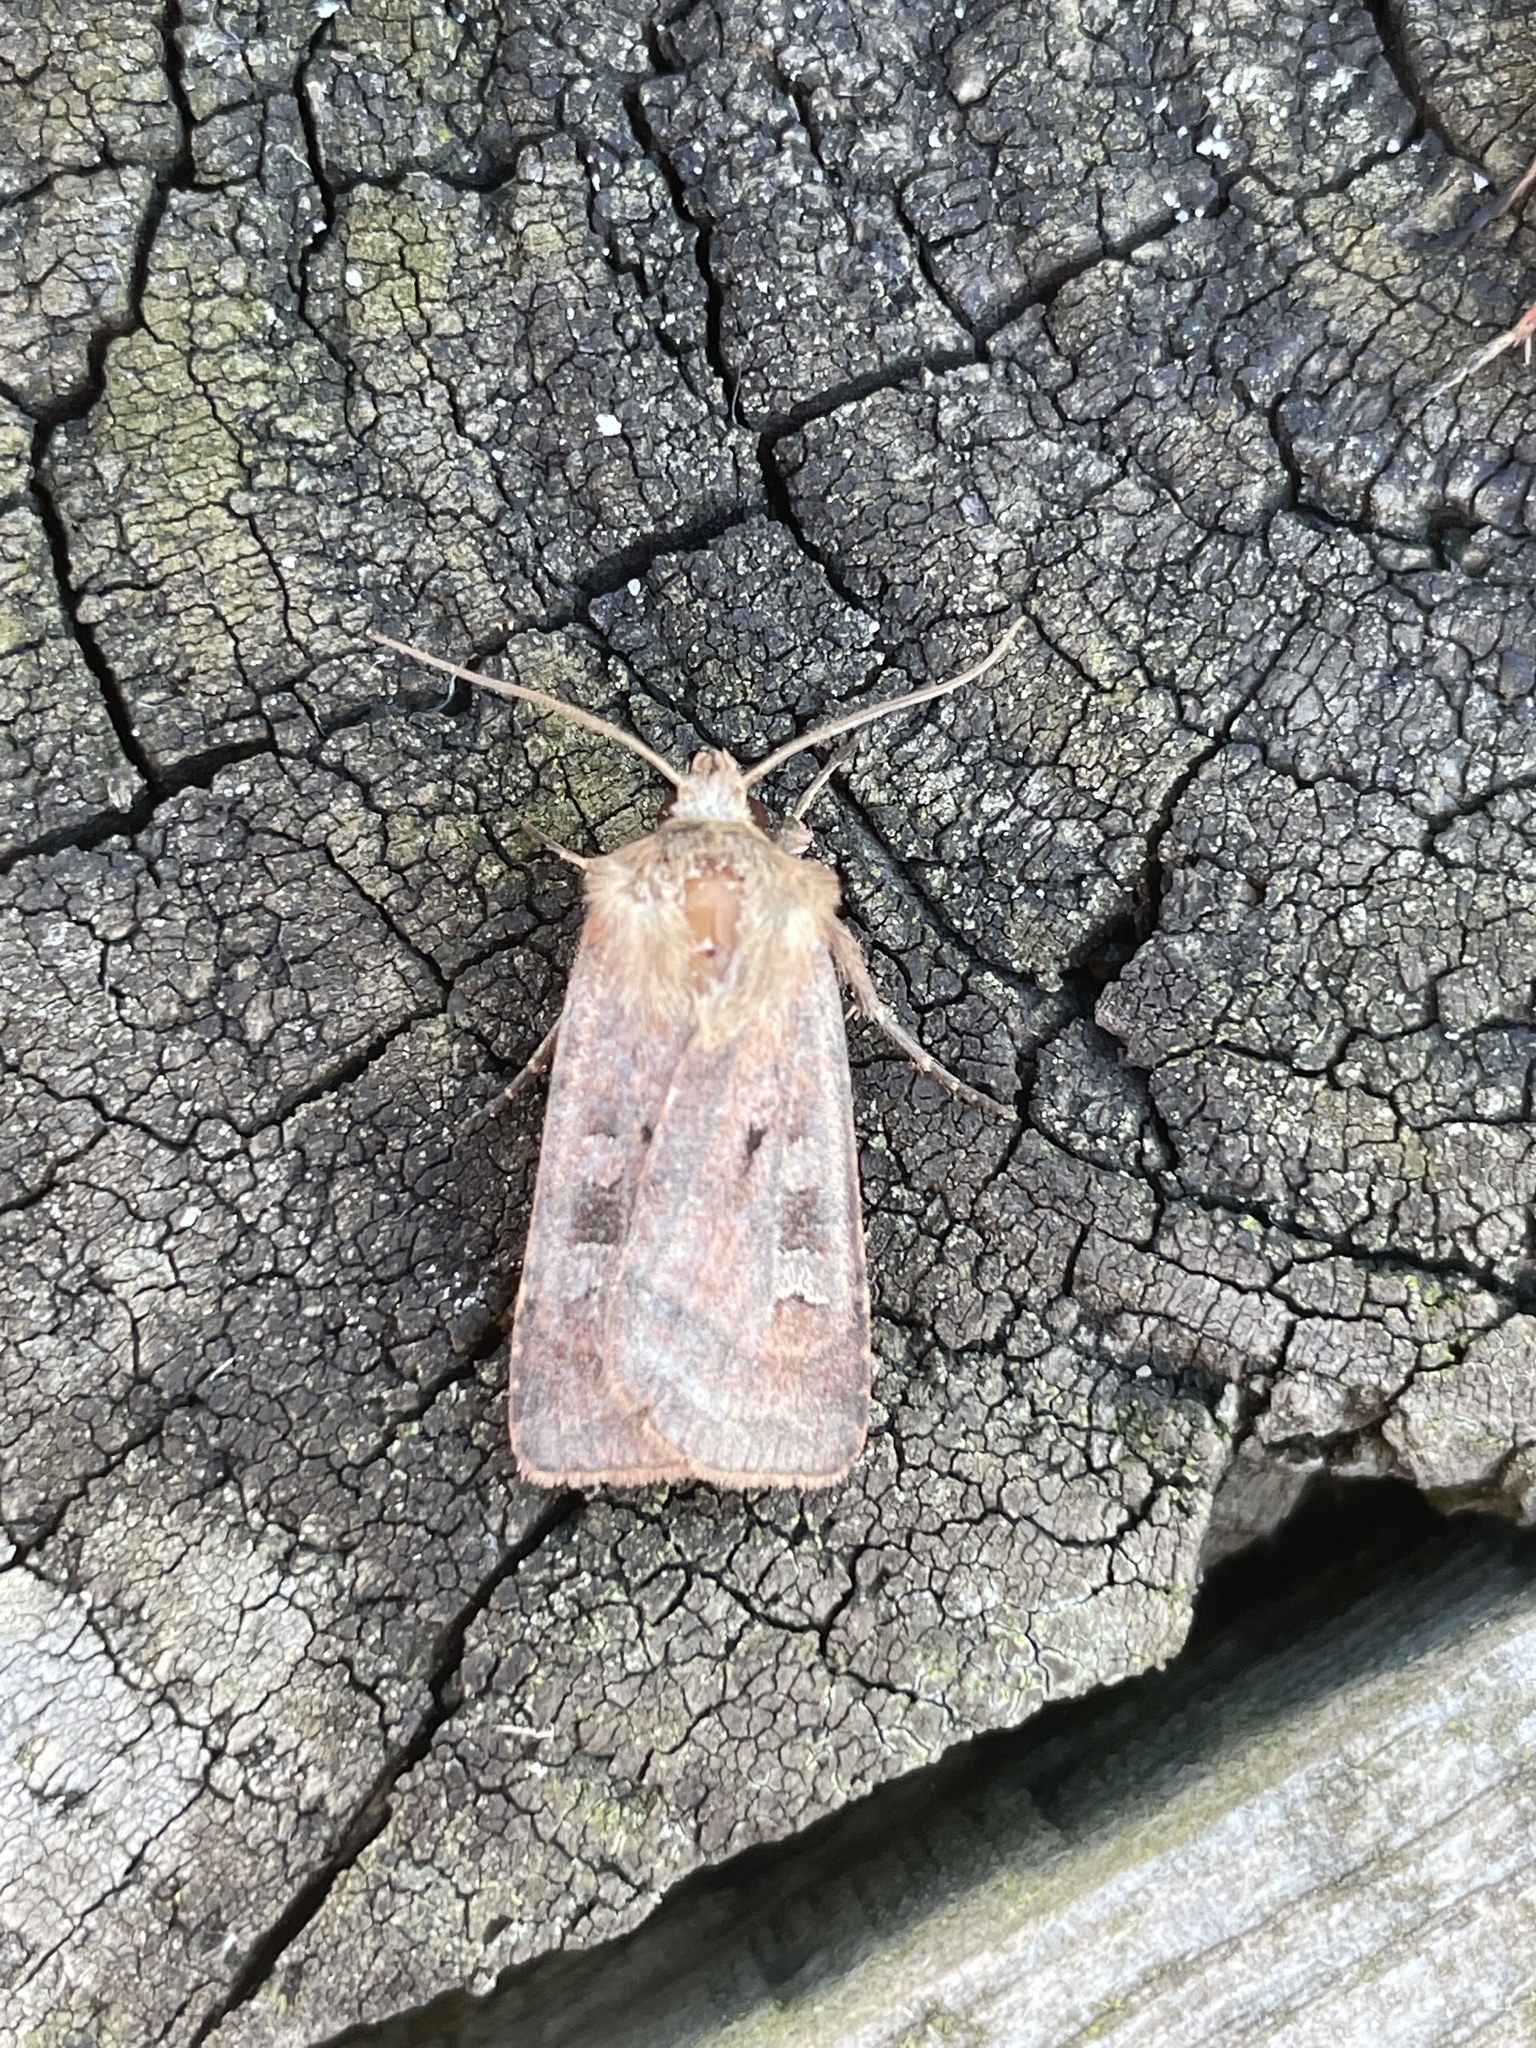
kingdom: Animalia
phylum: Arthropoda
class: Insecta
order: Lepidoptera
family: Noctuidae
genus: Diarsia
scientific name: Diarsia rubi
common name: Small square-spot
